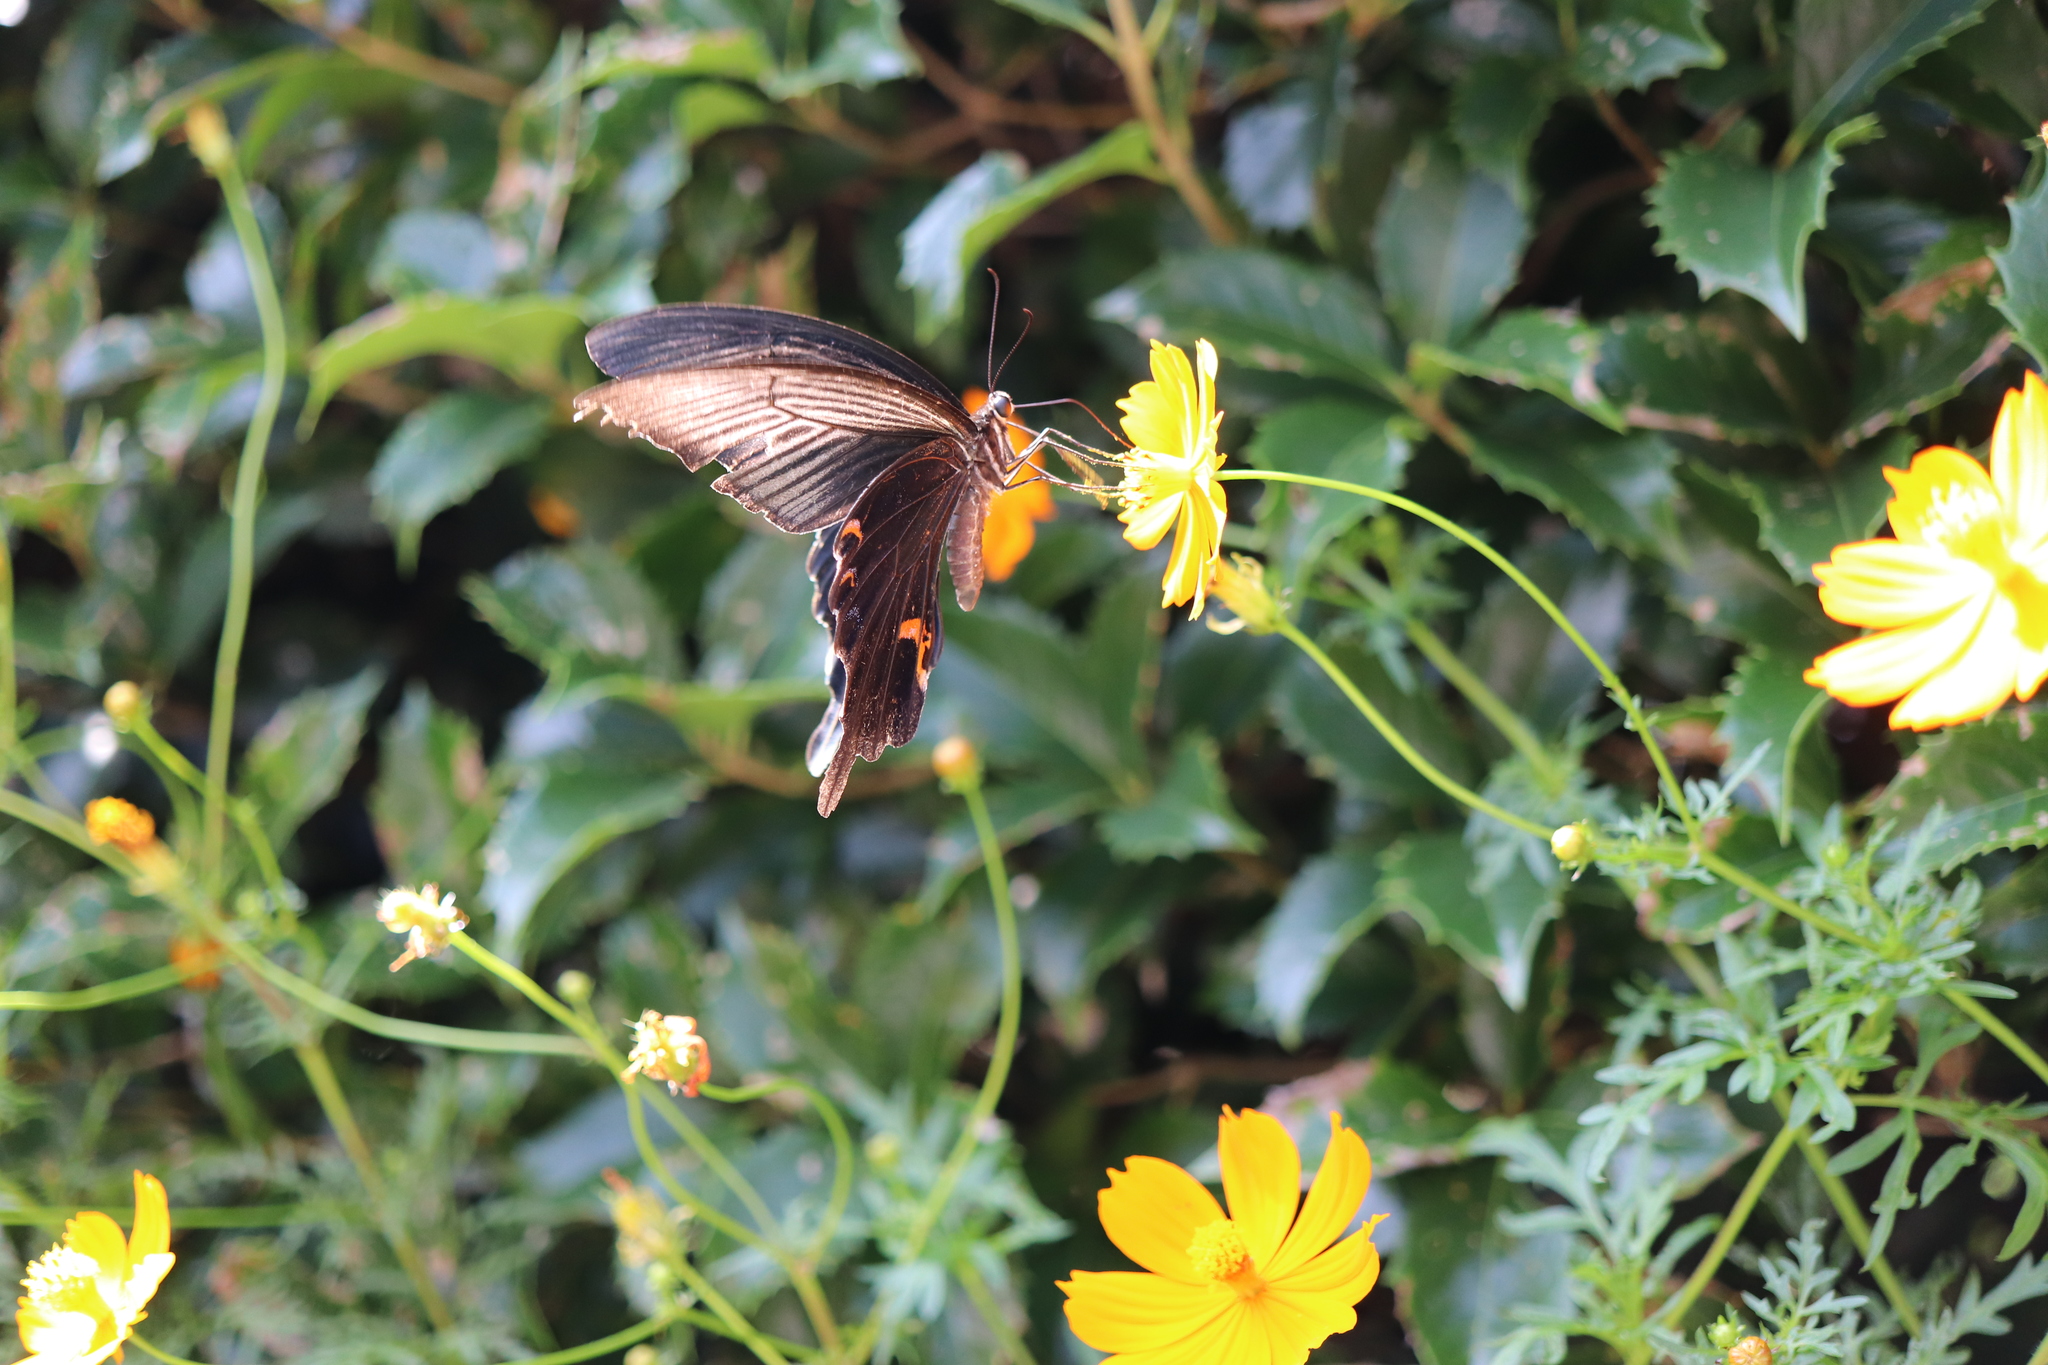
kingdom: Animalia
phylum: Arthropoda
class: Insecta
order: Lepidoptera
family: Papilionidae
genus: Papilio
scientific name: Papilio demetrius
